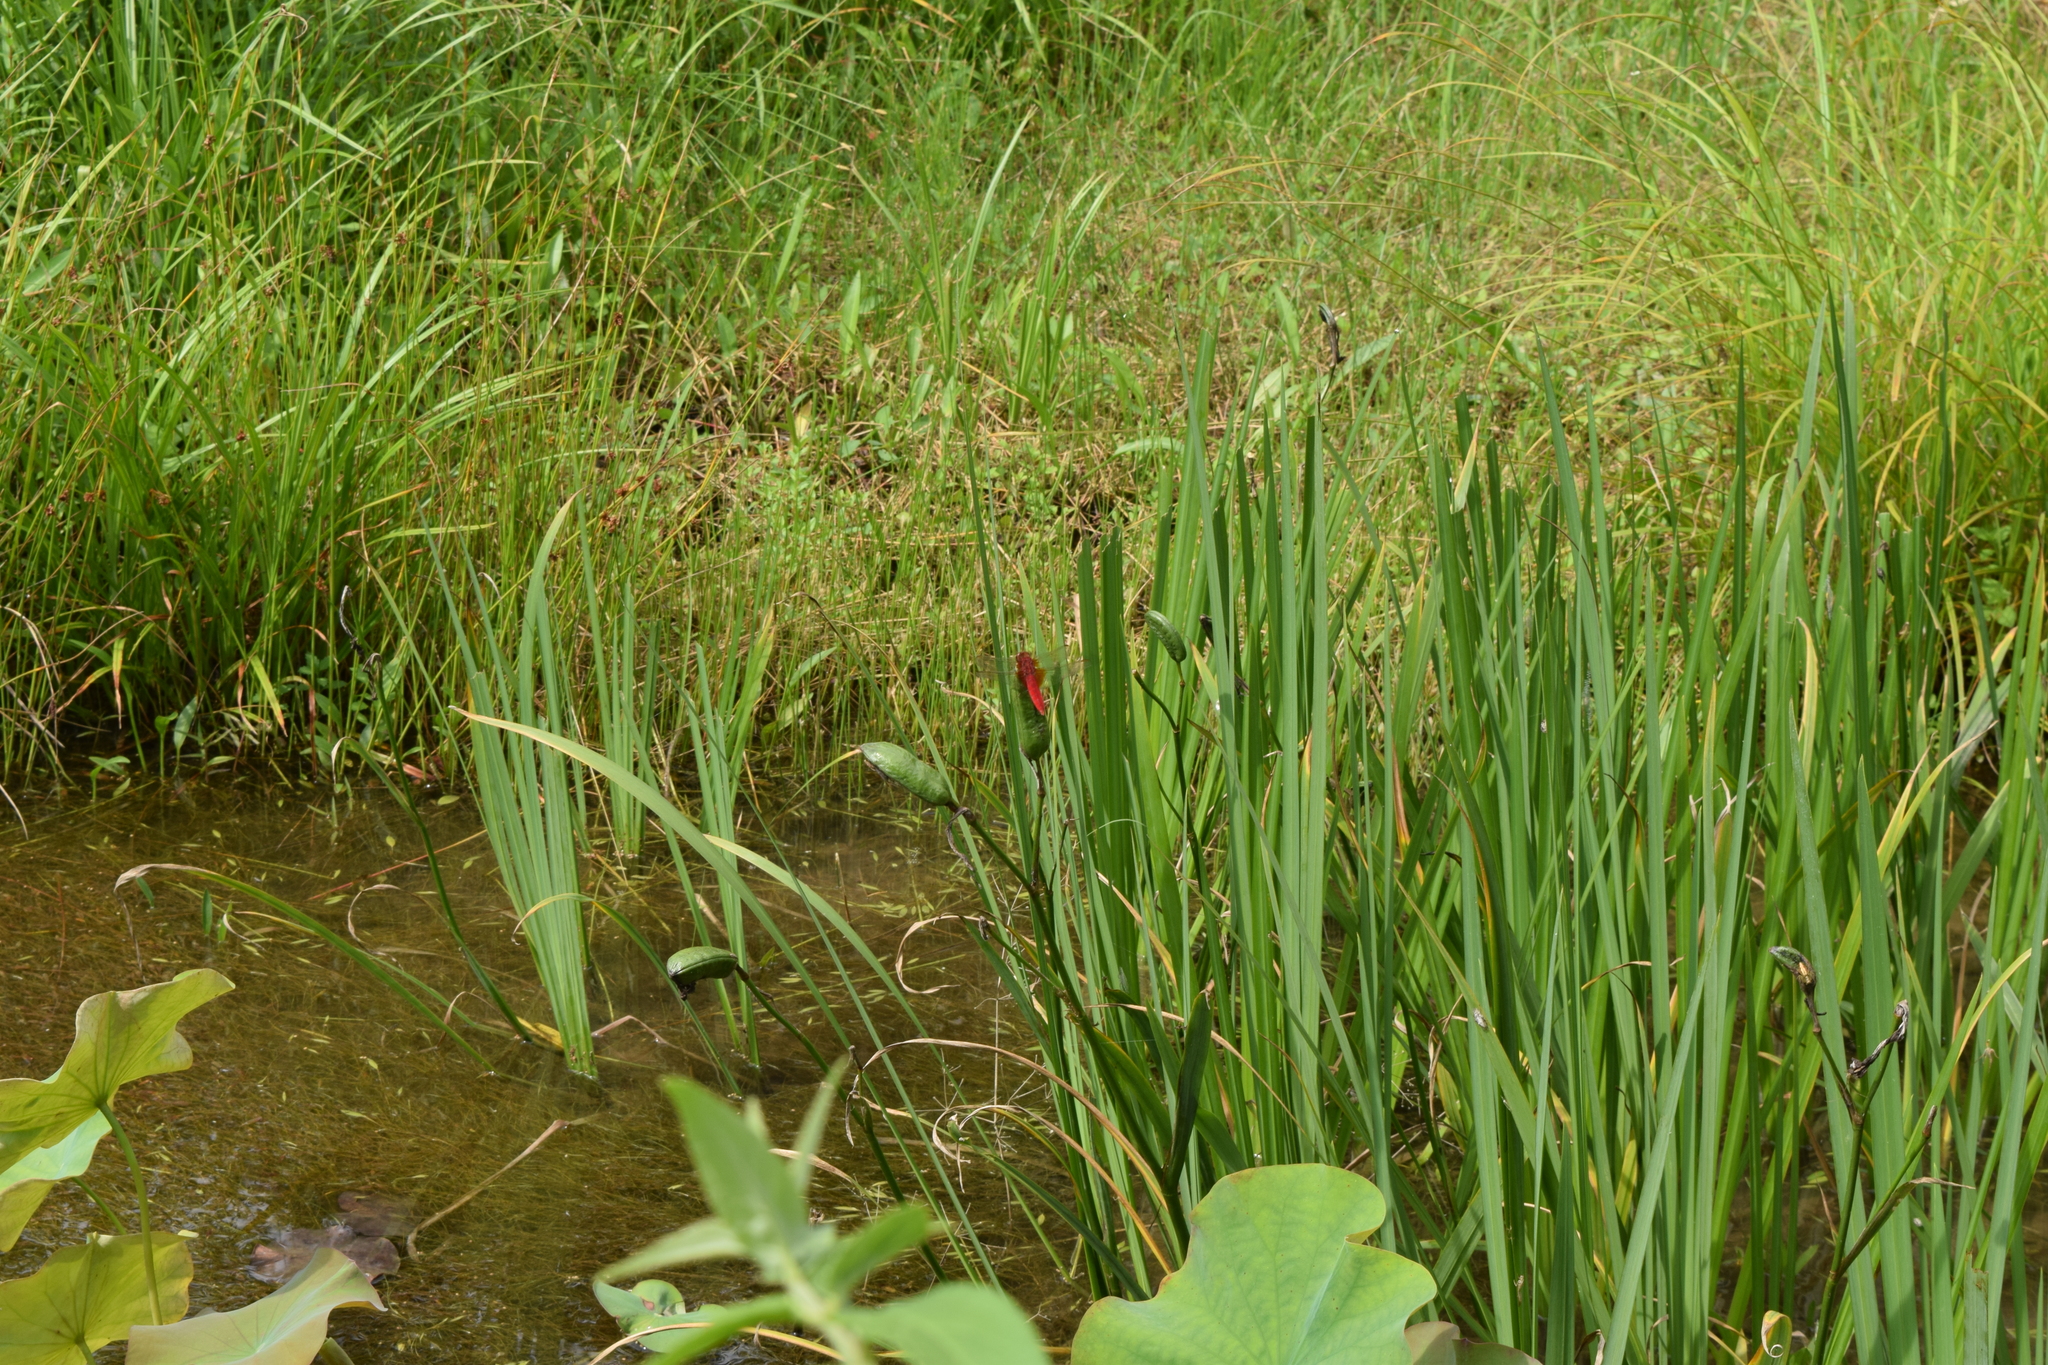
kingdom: Animalia
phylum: Arthropoda
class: Insecta
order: Odonata
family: Libellulidae
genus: Crocothemis
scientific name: Crocothemis servilia
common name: Scarlet skimmer
